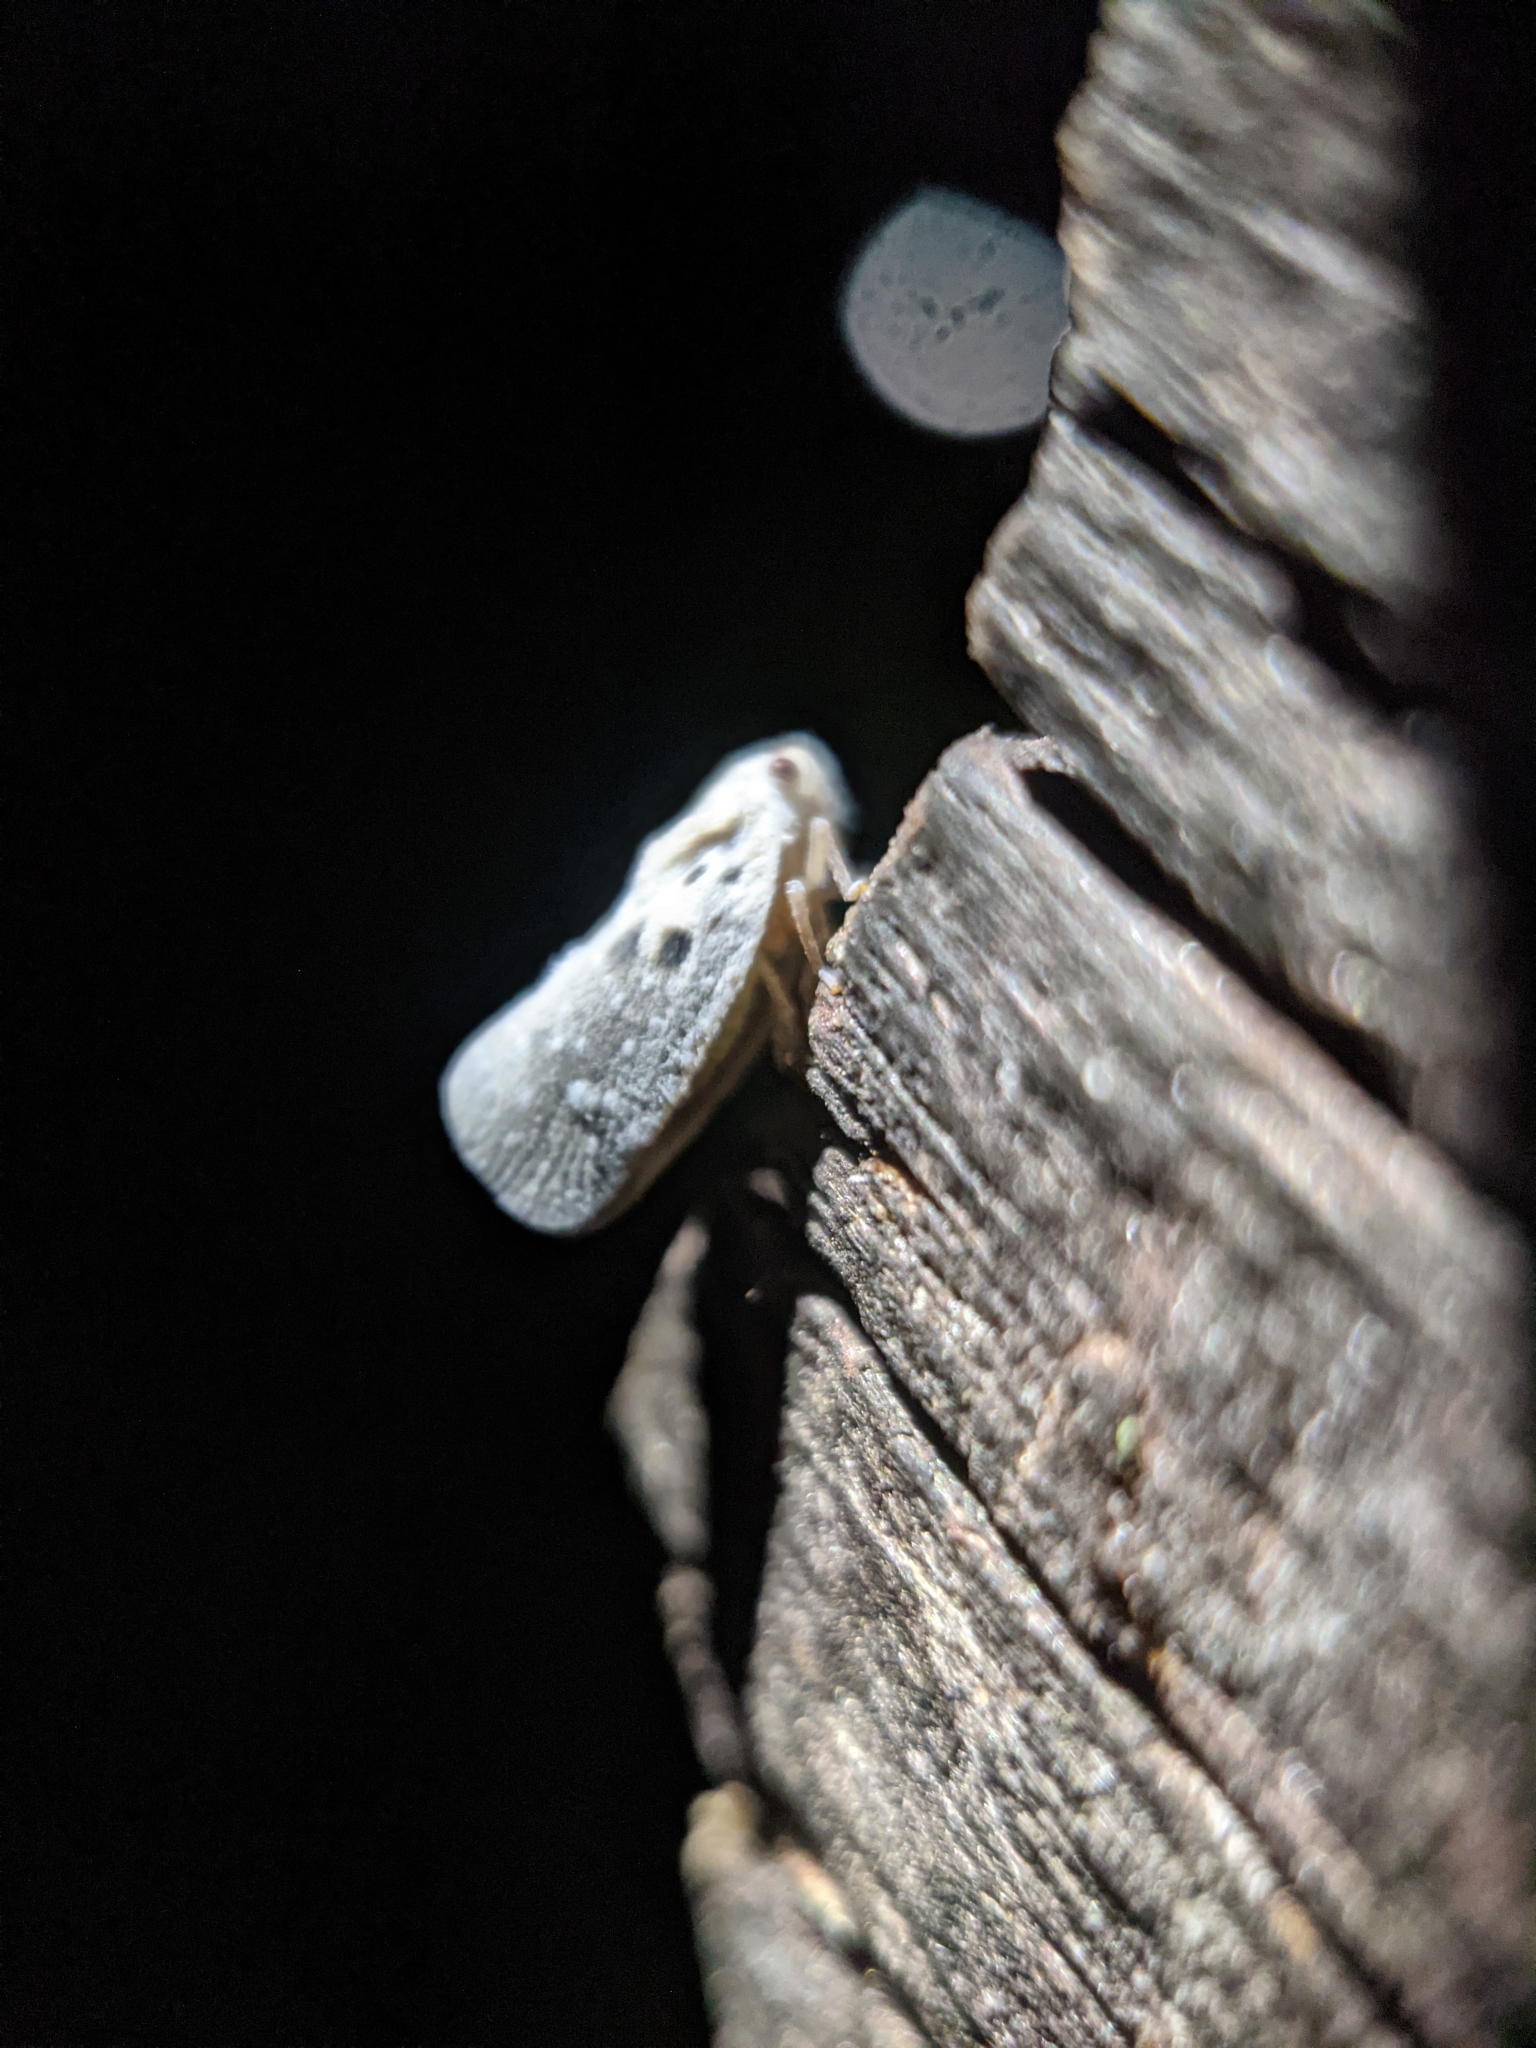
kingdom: Animalia
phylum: Arthropoda
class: Insecta
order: Hemiptera
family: Flatidae
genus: Metcalfa
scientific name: Metcalfa pruinosa
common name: Citrus flatid planthopper
